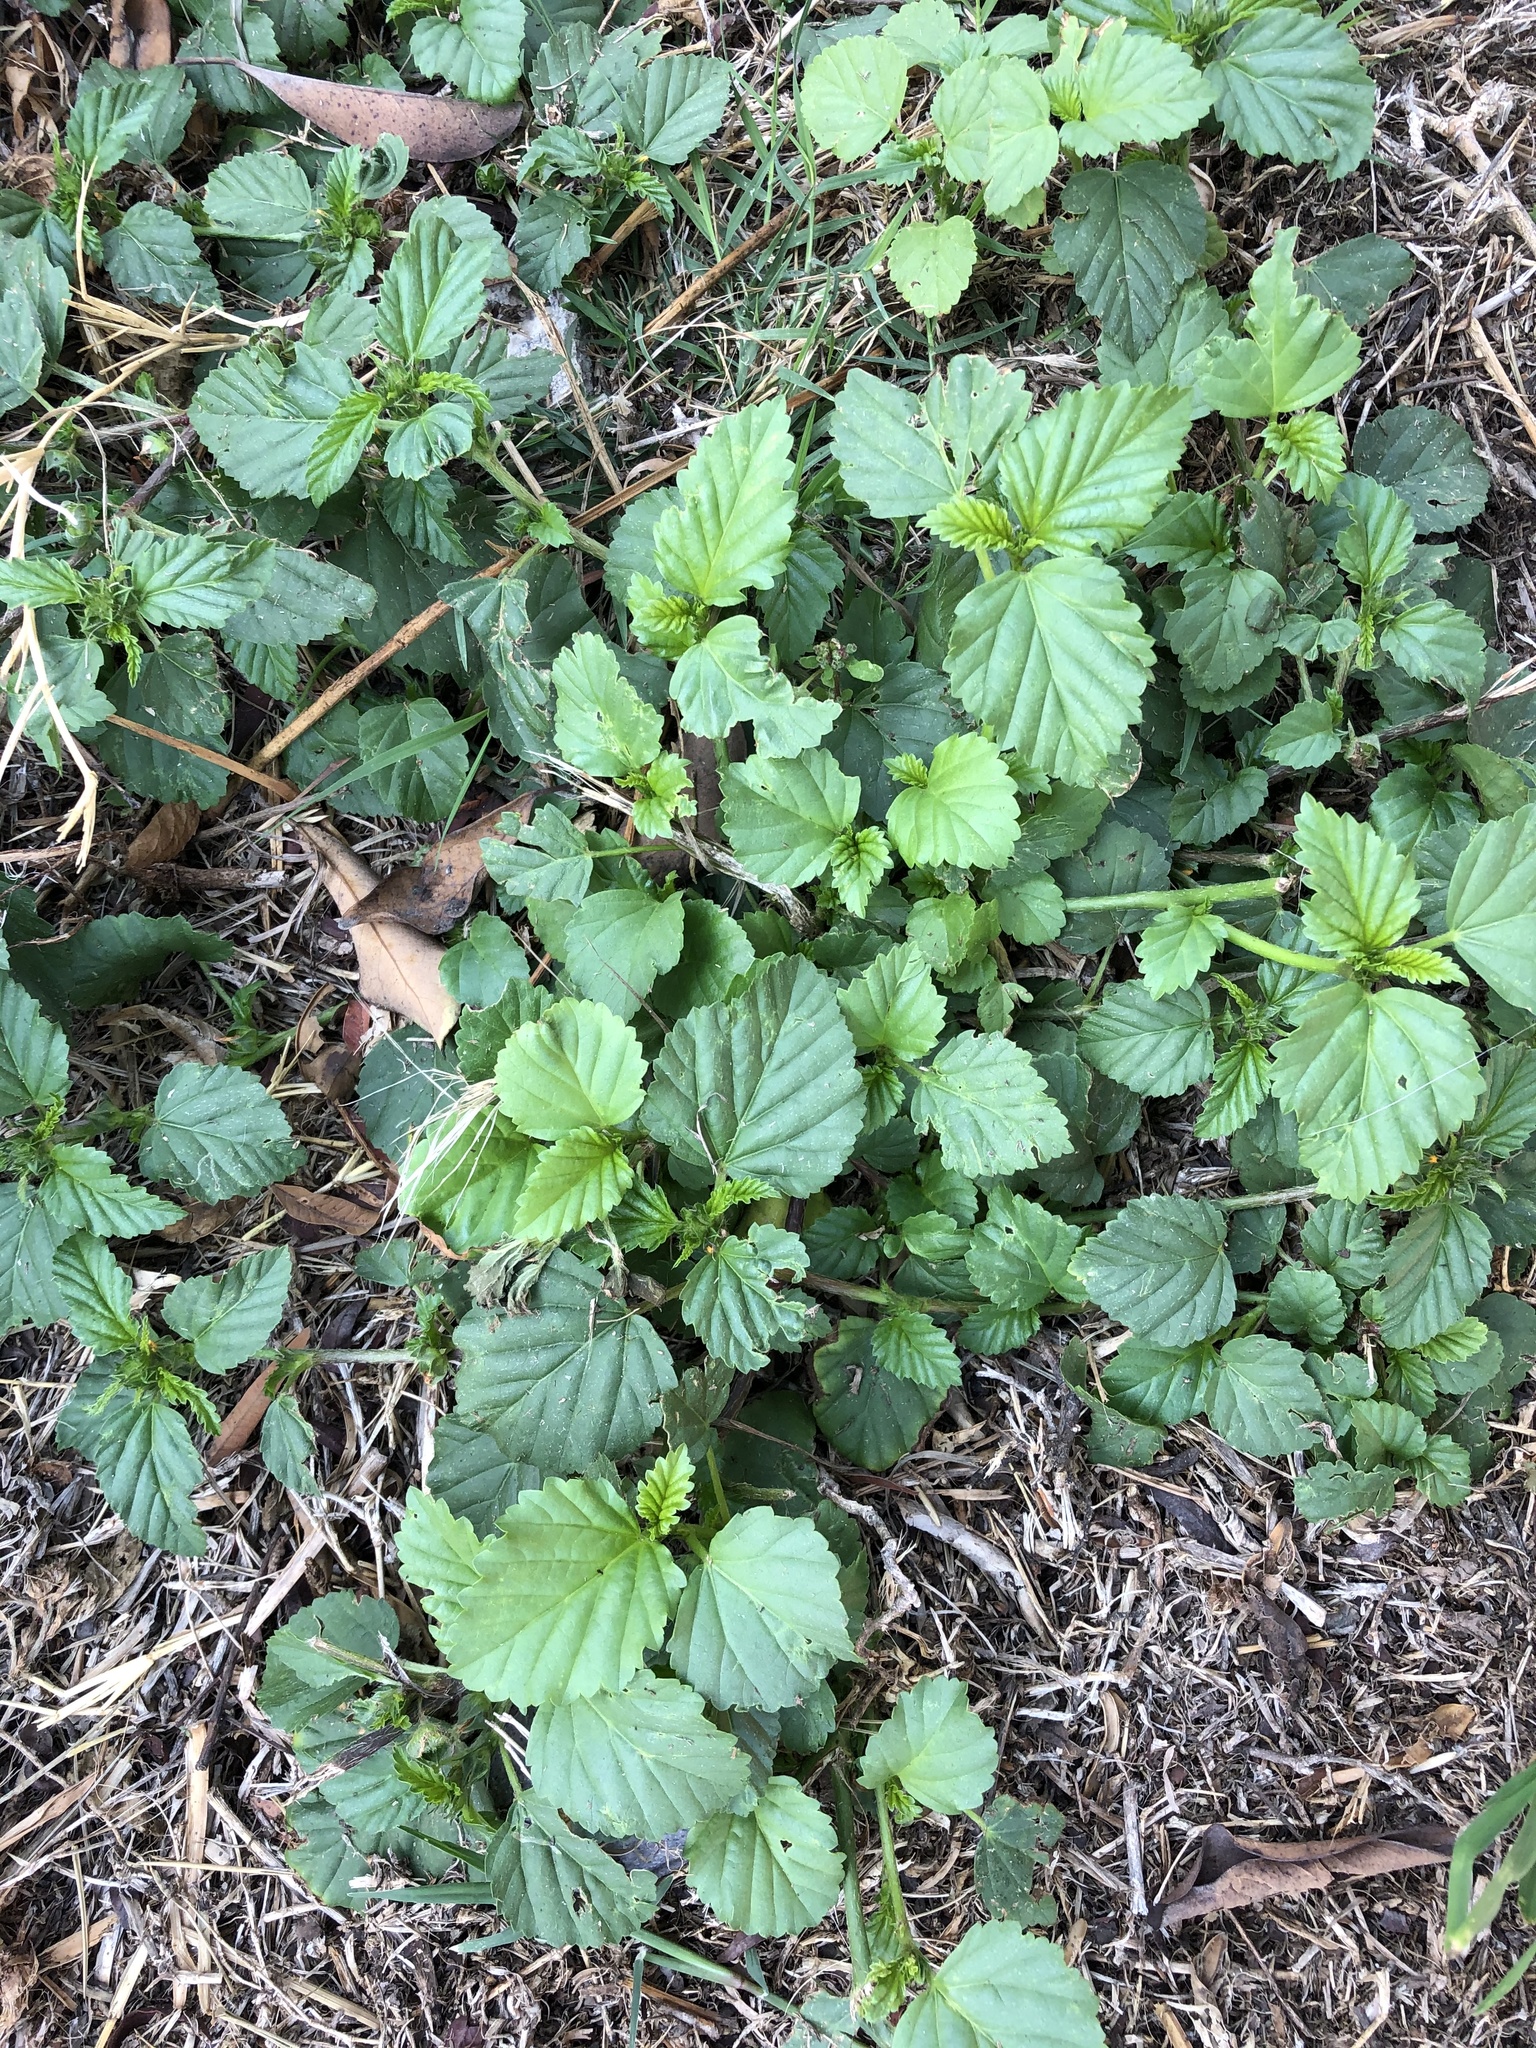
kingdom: Plantae
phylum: Tracheophyta
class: Magnoliopsida
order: Malvales
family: Malvaceae
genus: Malvastrum
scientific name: Malvastrum coromandelianum
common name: Threelobe false mallow
